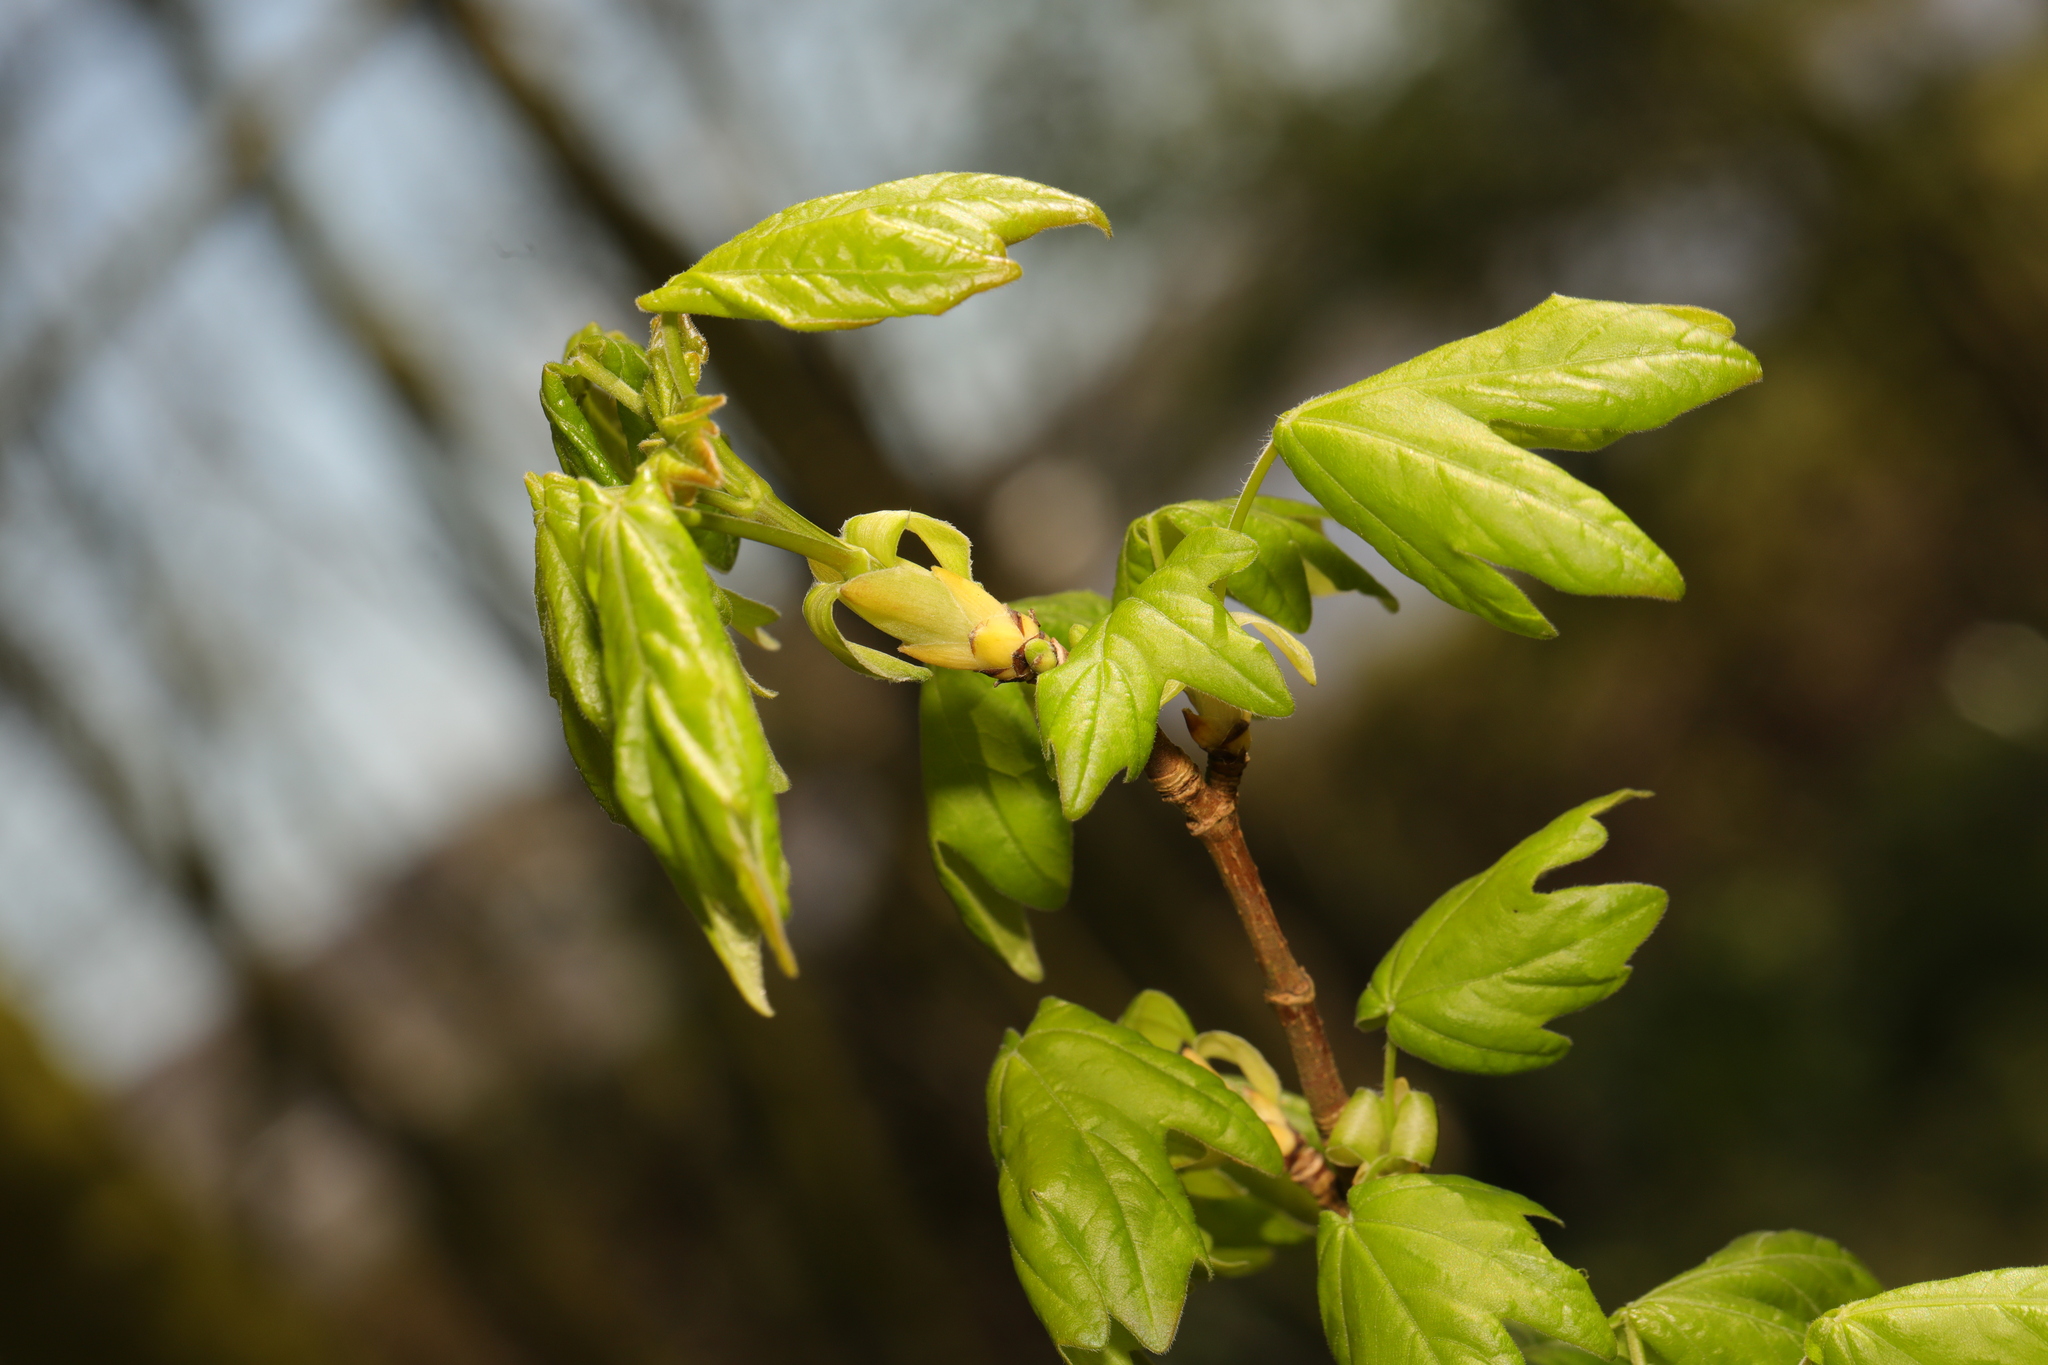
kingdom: Plantae
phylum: Tracheophyta
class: Magnoliopsida
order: Sapindales
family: Sapindaceae
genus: Acer
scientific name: Acer campestre
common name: Field maple
